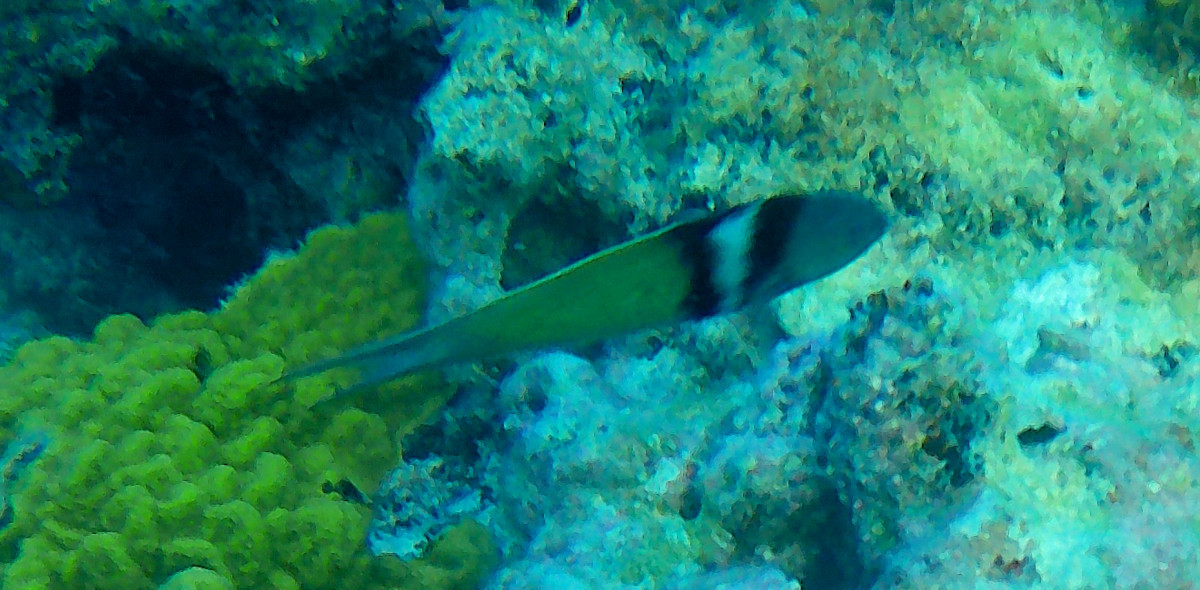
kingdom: Animalia
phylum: Chordata
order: Perciformes
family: Labridae
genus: Thalassoma
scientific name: Thalassoma bifasciatum
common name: Bluehead wrasse
